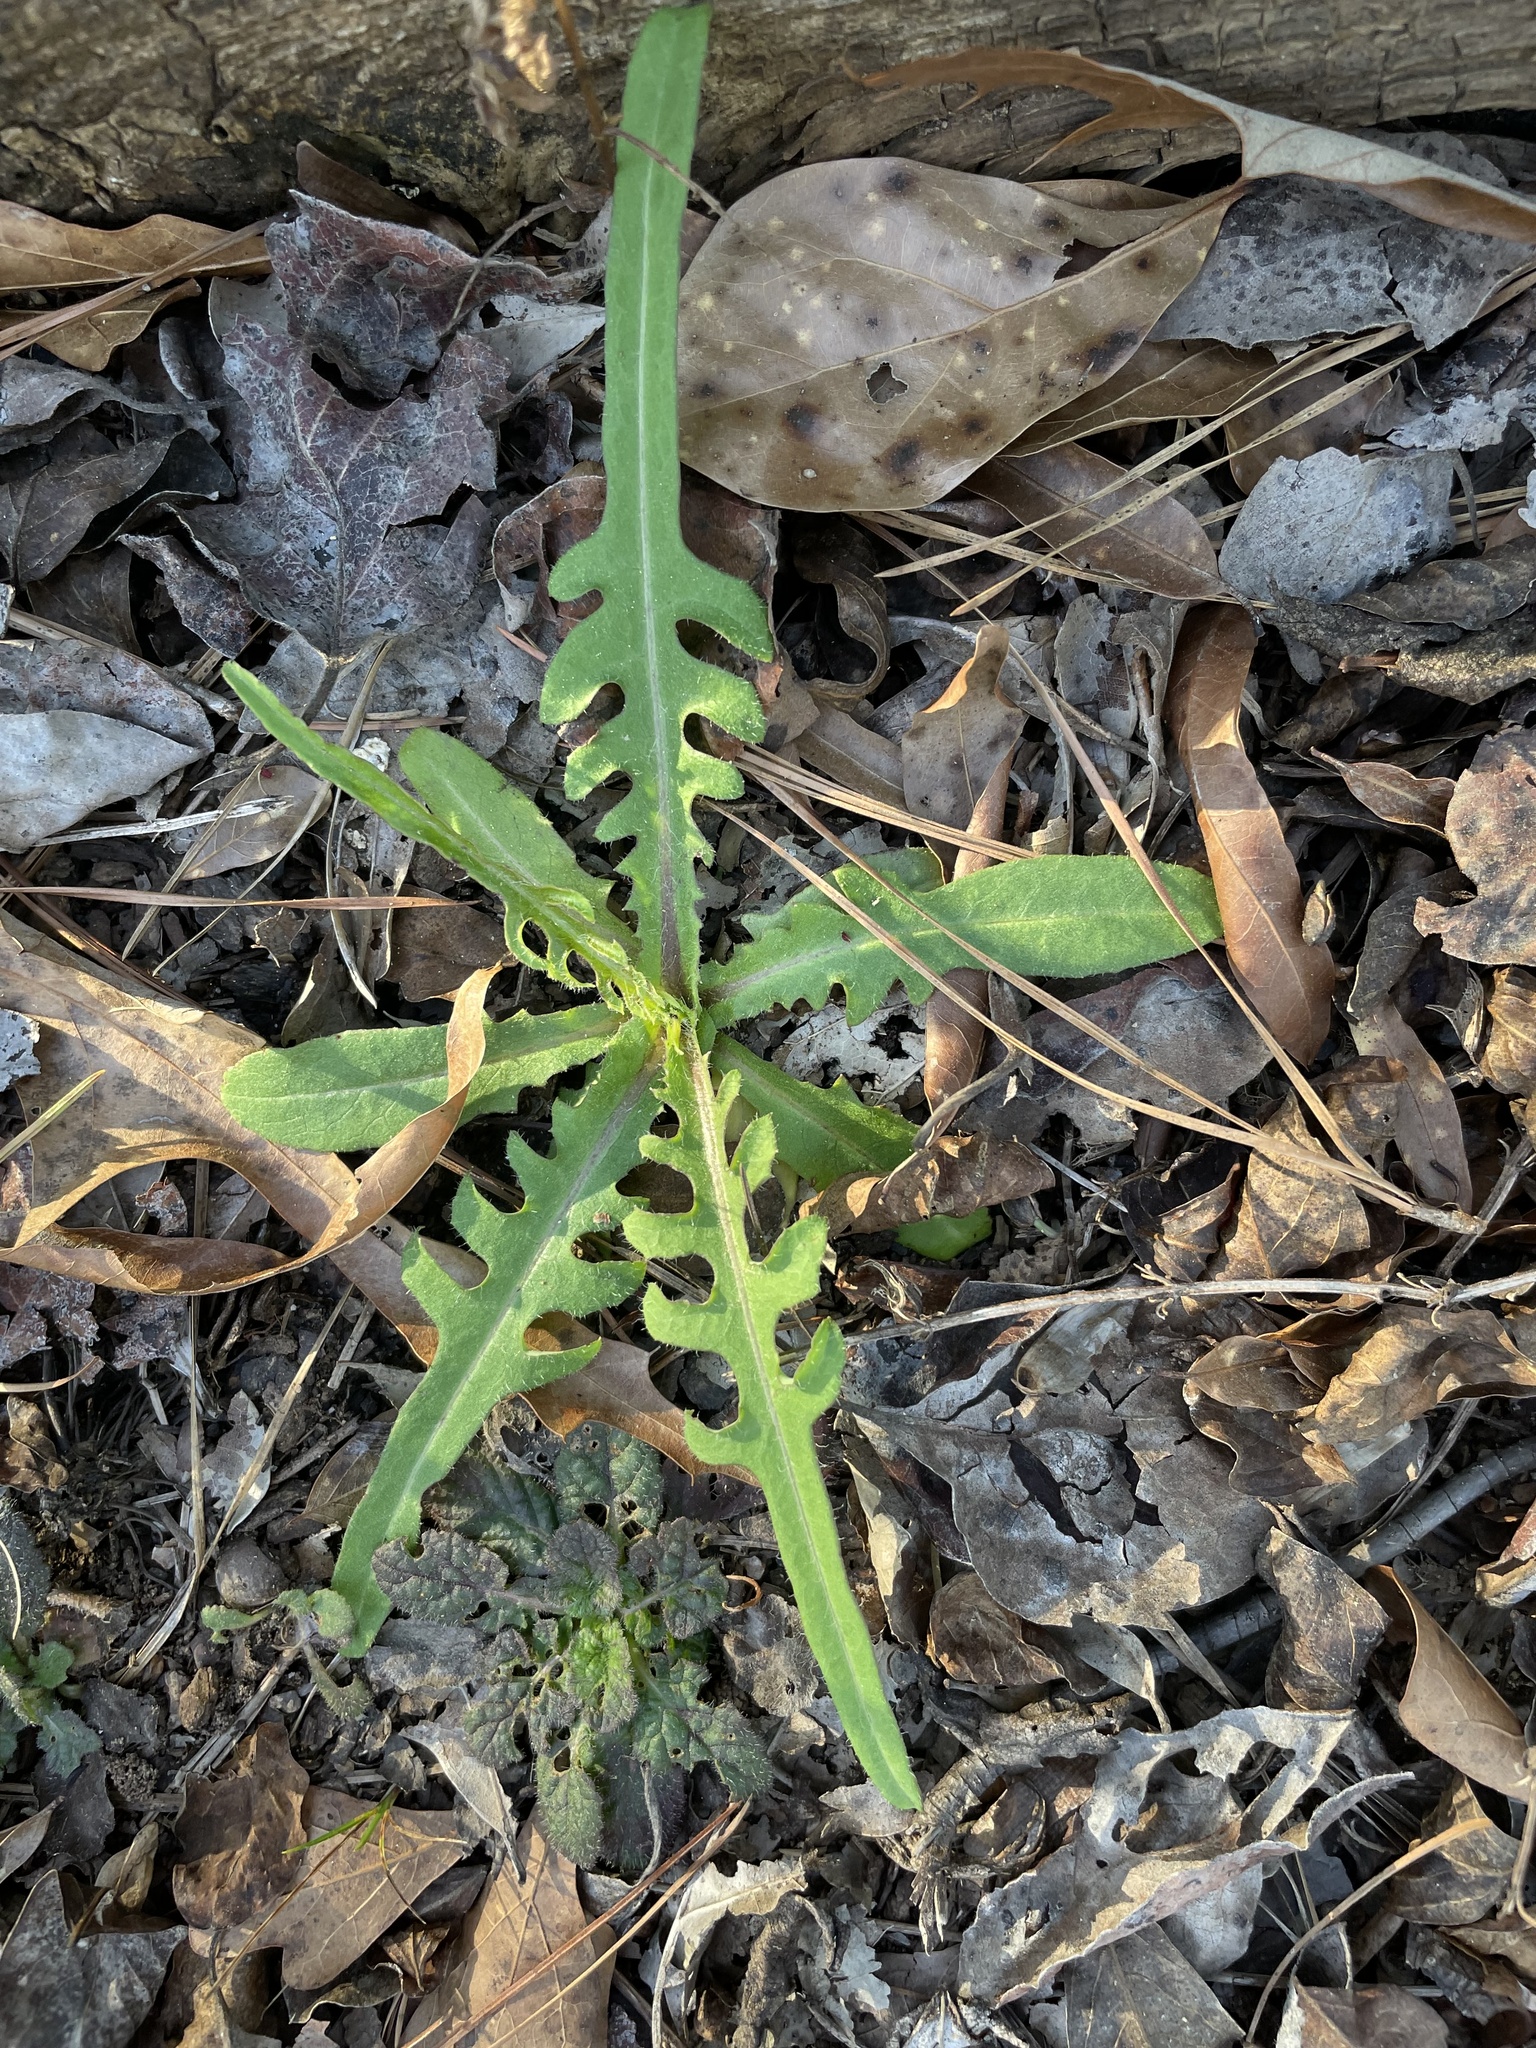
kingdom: Plantae
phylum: Tracheophyta
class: Magnoliopsida
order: Asterales
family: Asteraceae
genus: Lactuca
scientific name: Lactuca floridana
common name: Woodland lettuce
